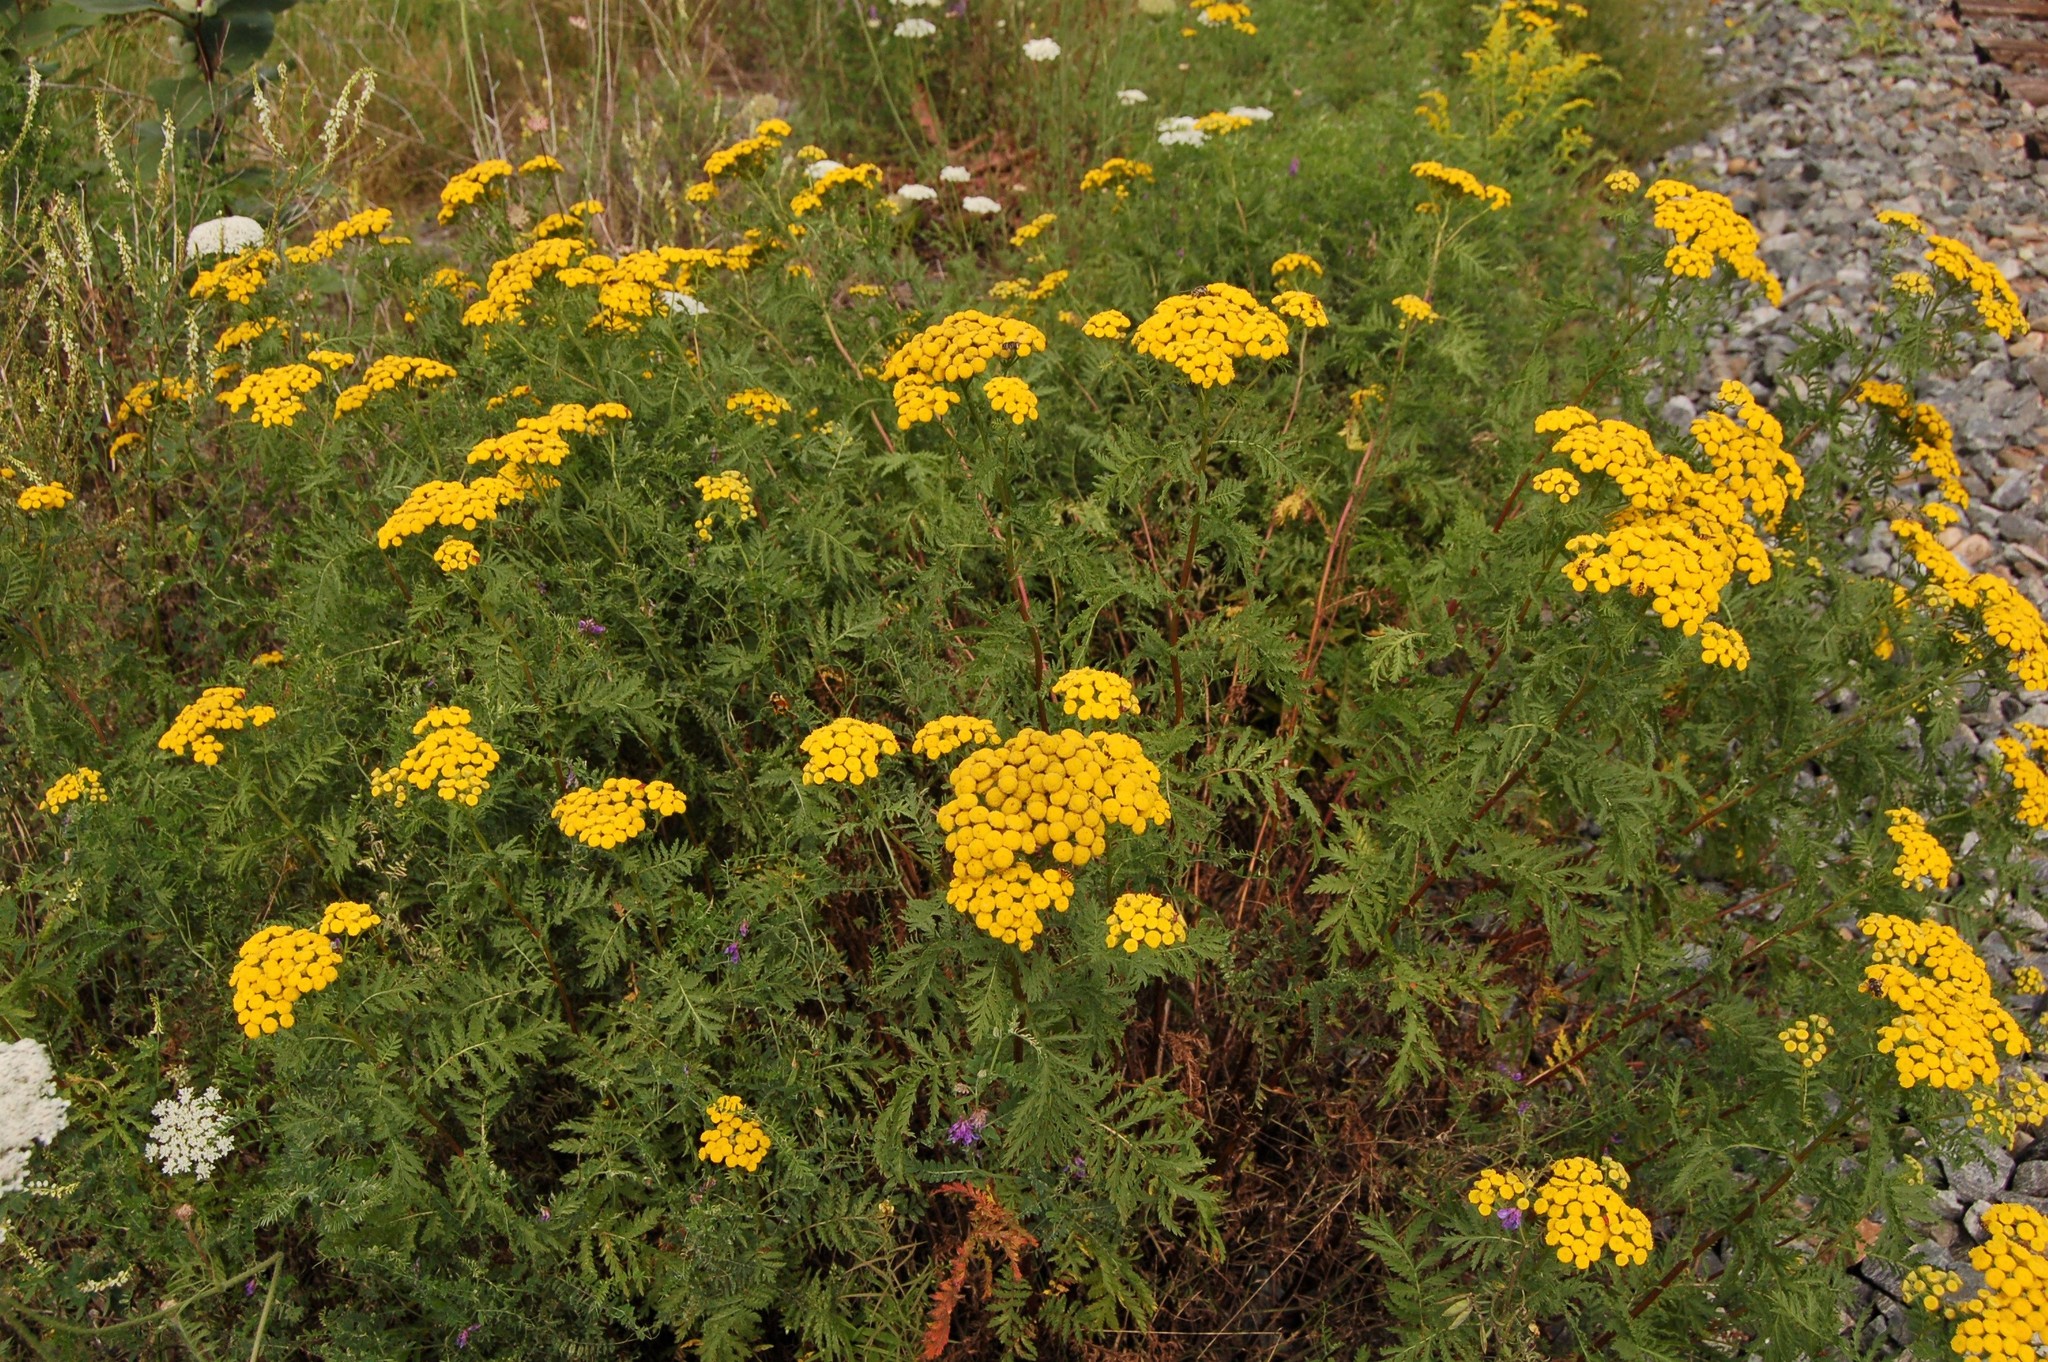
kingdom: Plantae
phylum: Tracheophyta
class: Magnoliopsida
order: Asterales
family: Asteraceae
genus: Tanacetum
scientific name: Tanacetum vulgare
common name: Common tansy
